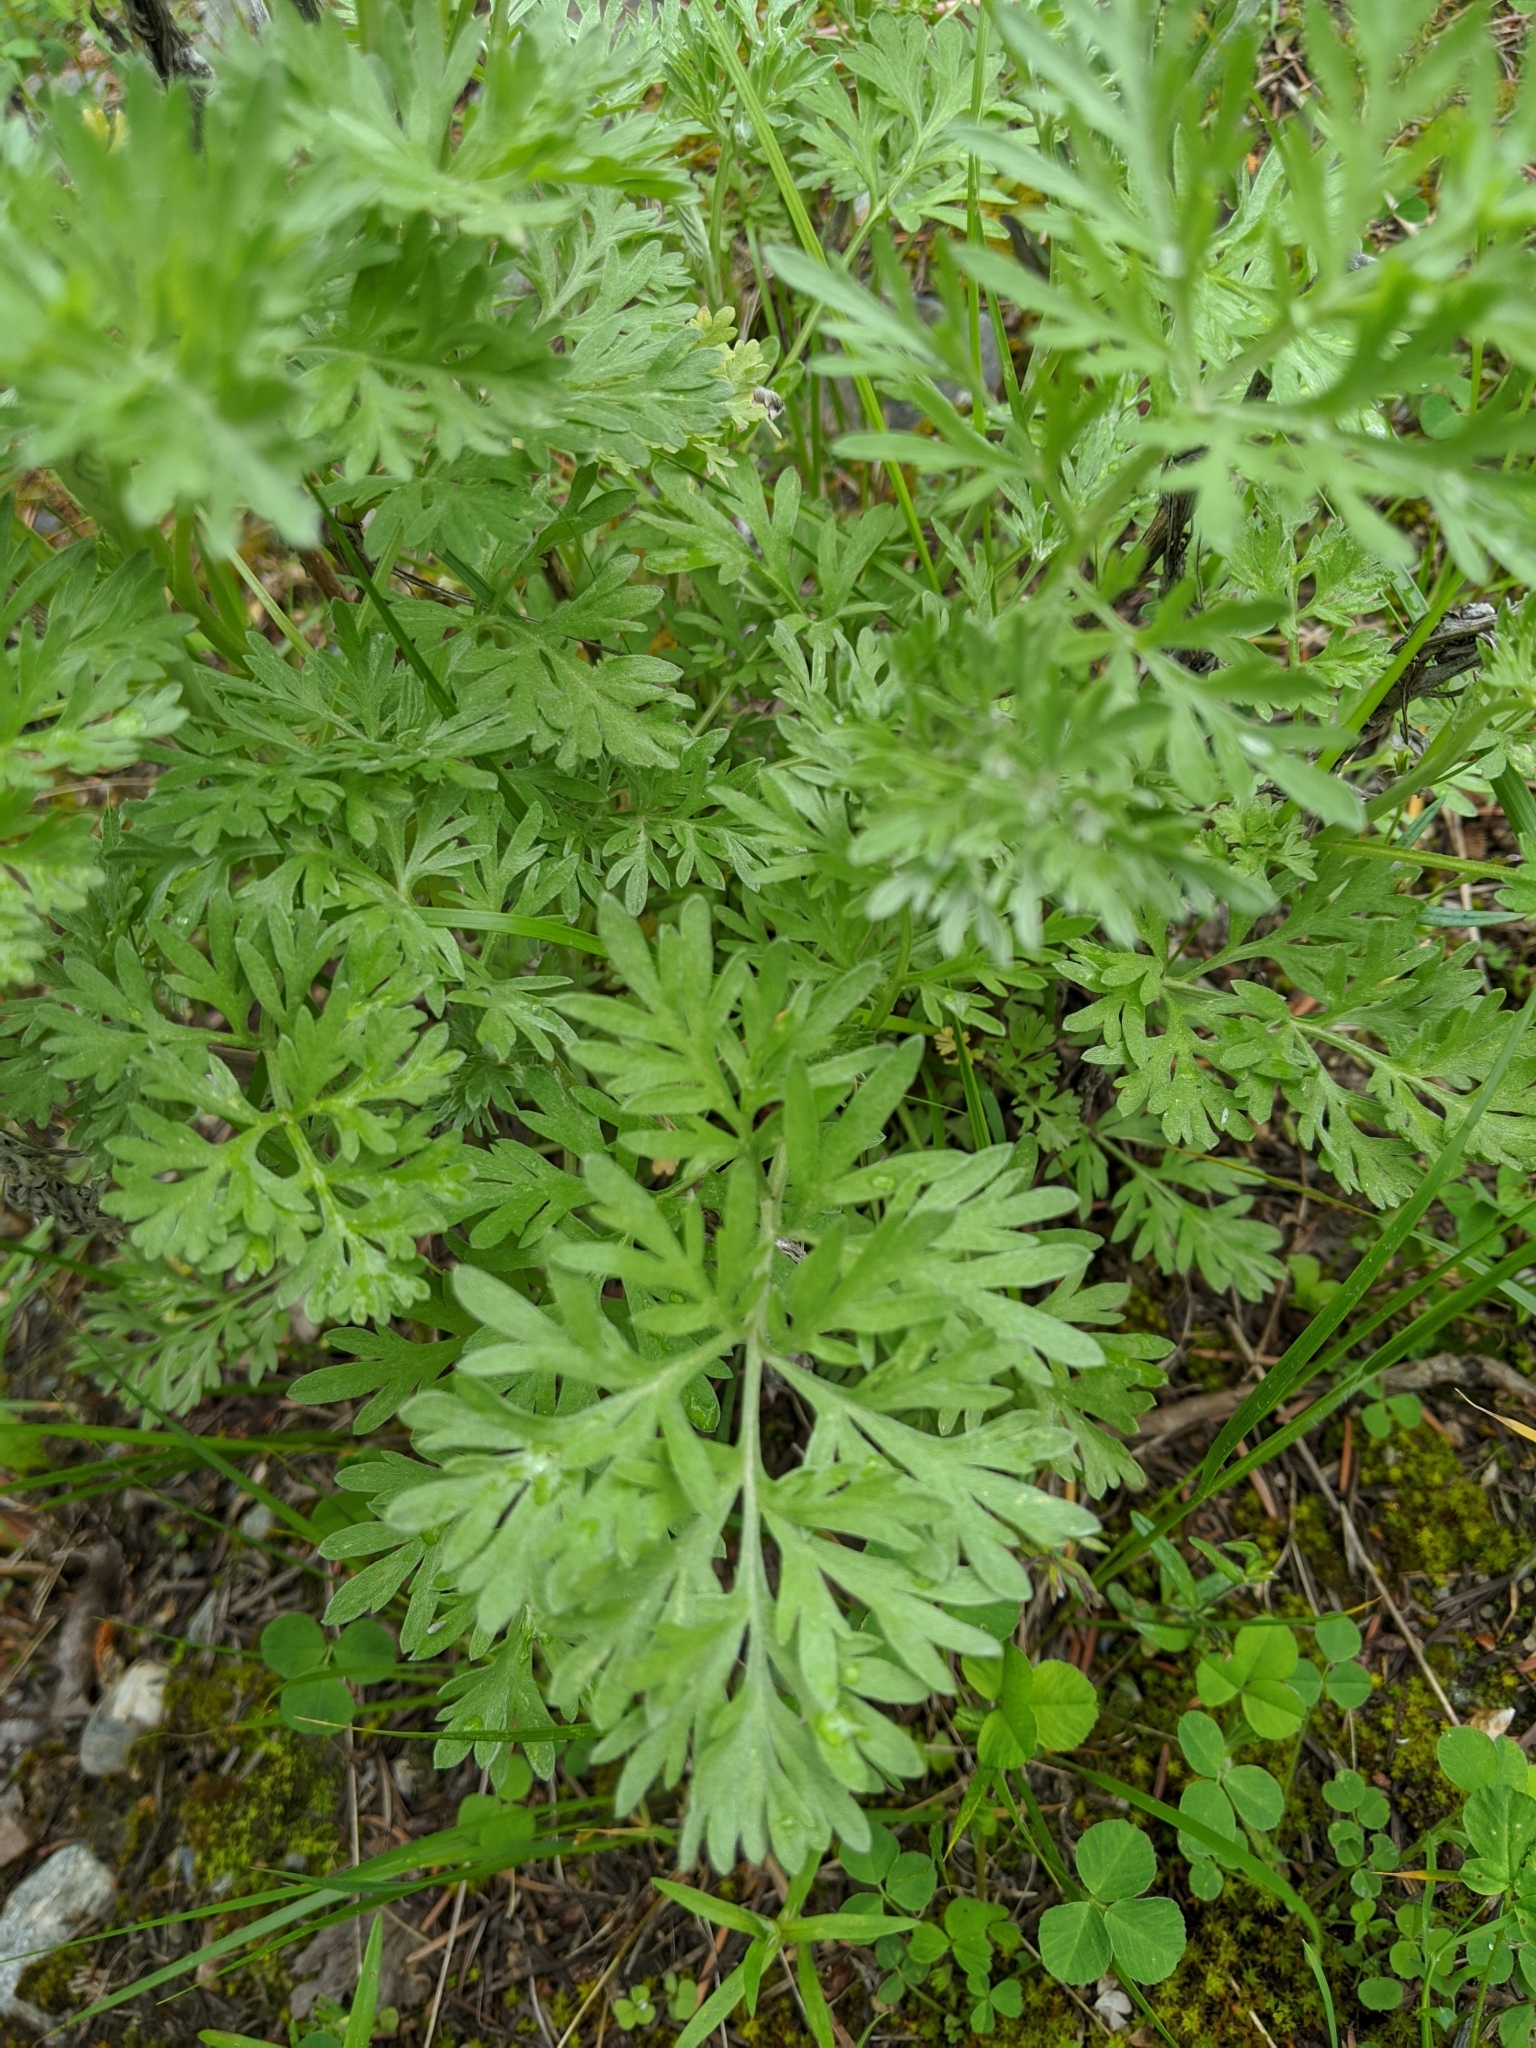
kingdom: Plantae
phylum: Tracheophyta
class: Magnoliopsida
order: Asterales
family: Asteraceae
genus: Artemisia
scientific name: Artemisia absinthium
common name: Wormwood
